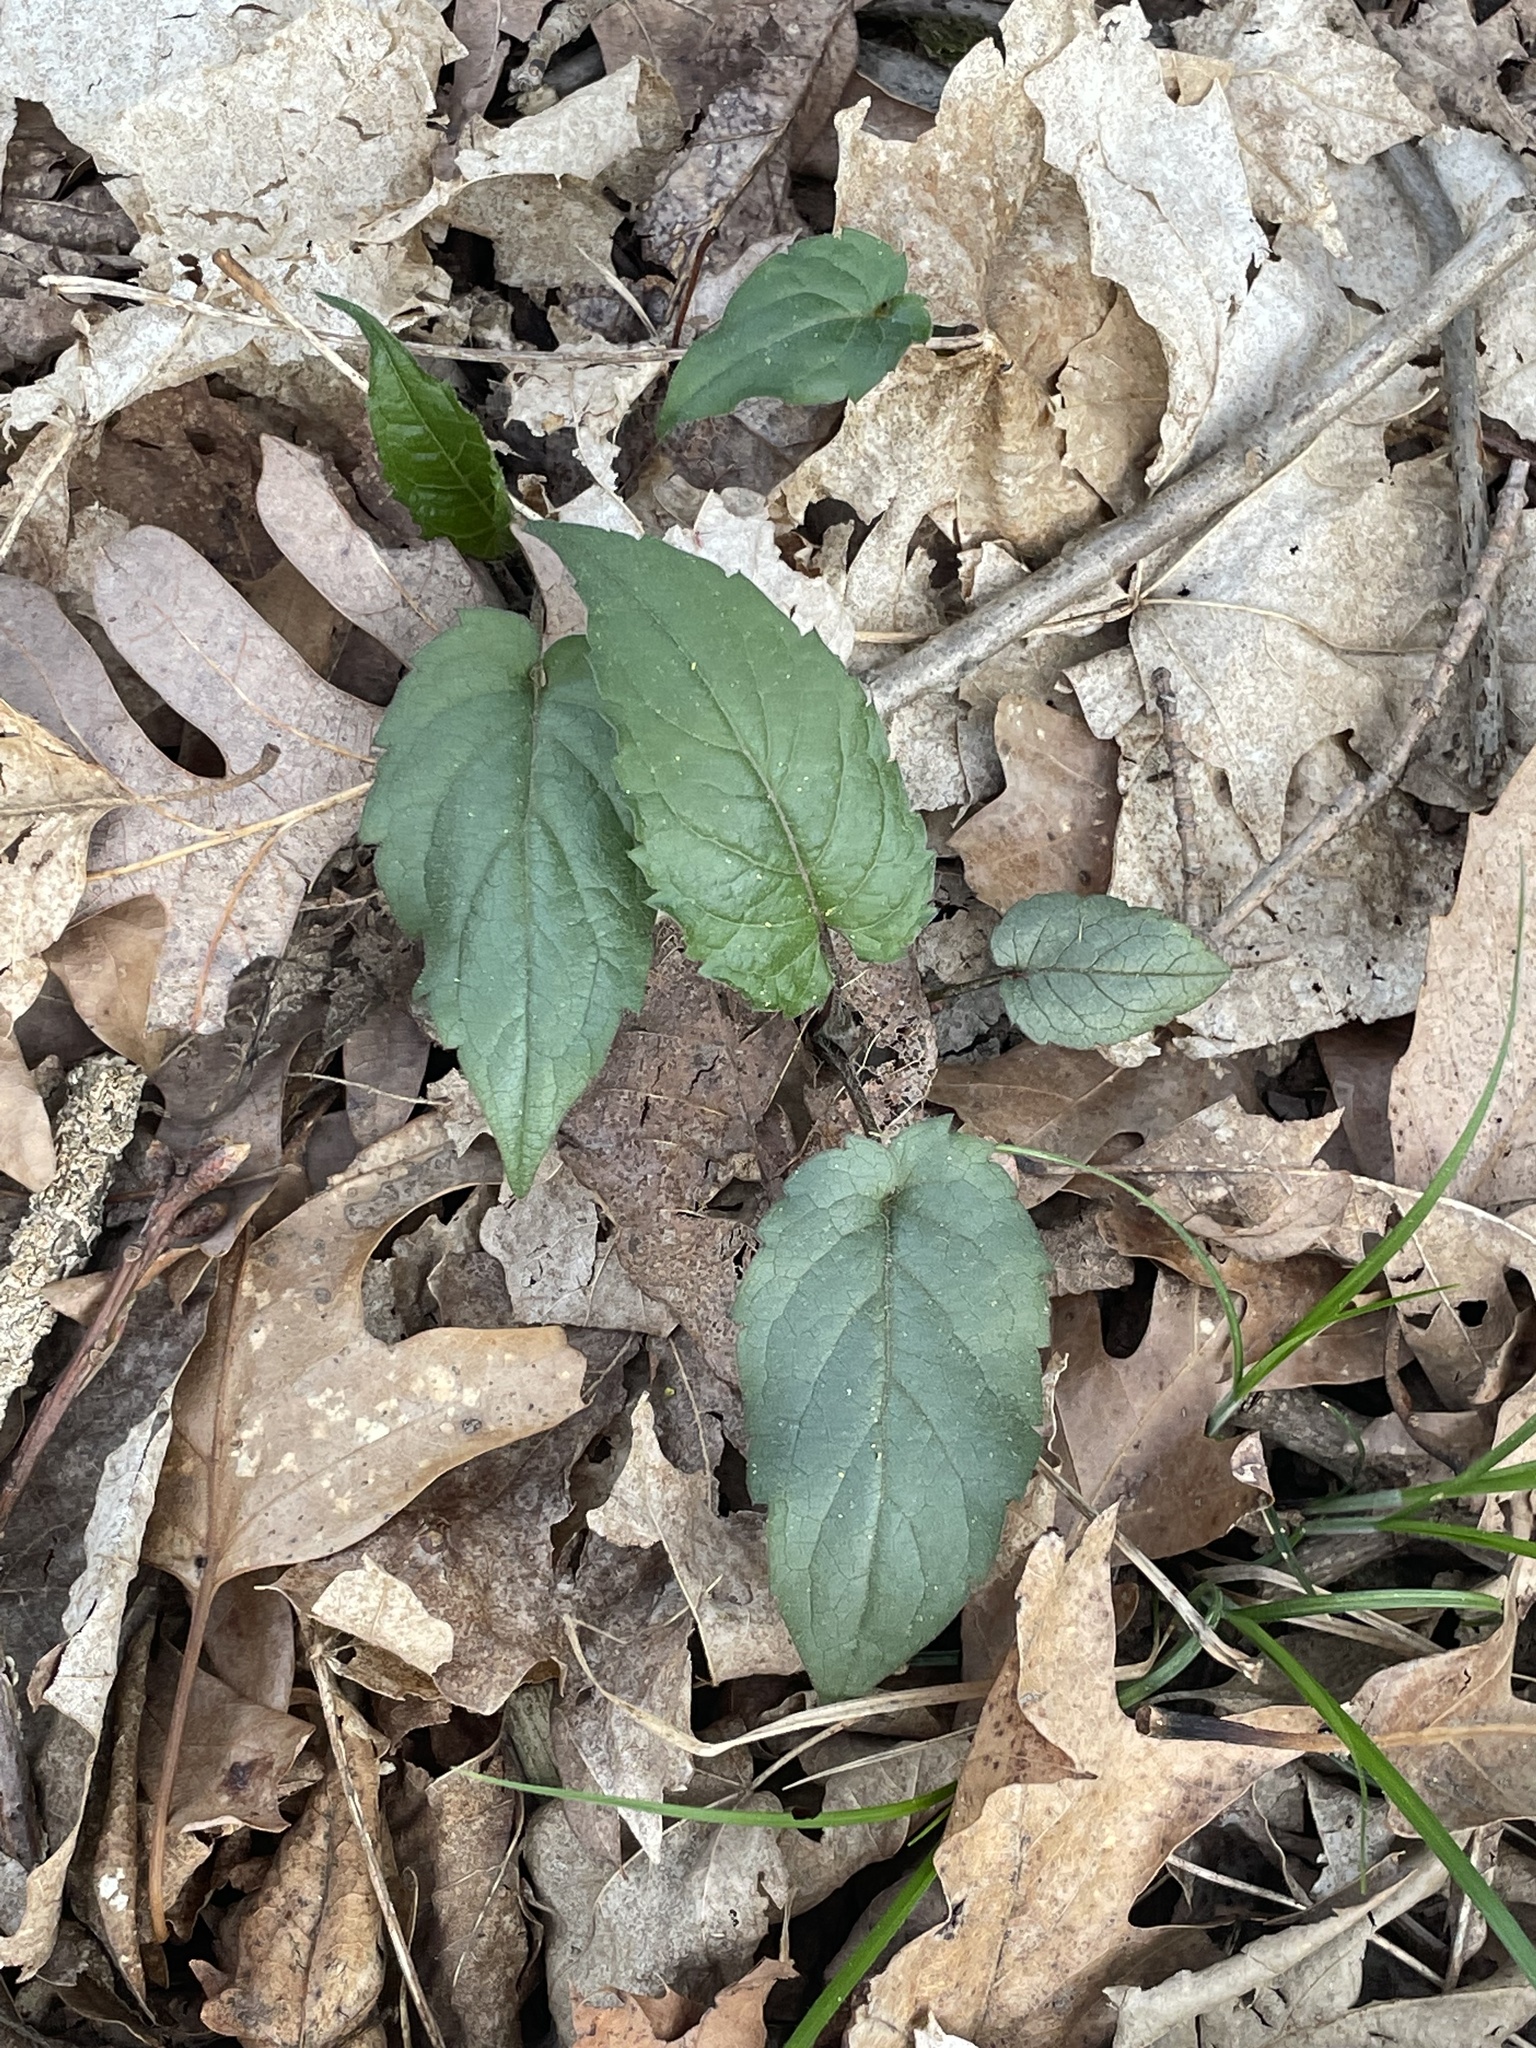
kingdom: Plantae
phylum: Tracheophyta
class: Magnoliopsida
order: Asterales
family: Asteraceae
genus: Eurybia
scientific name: Eurybia divaricata
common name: White wood aster
